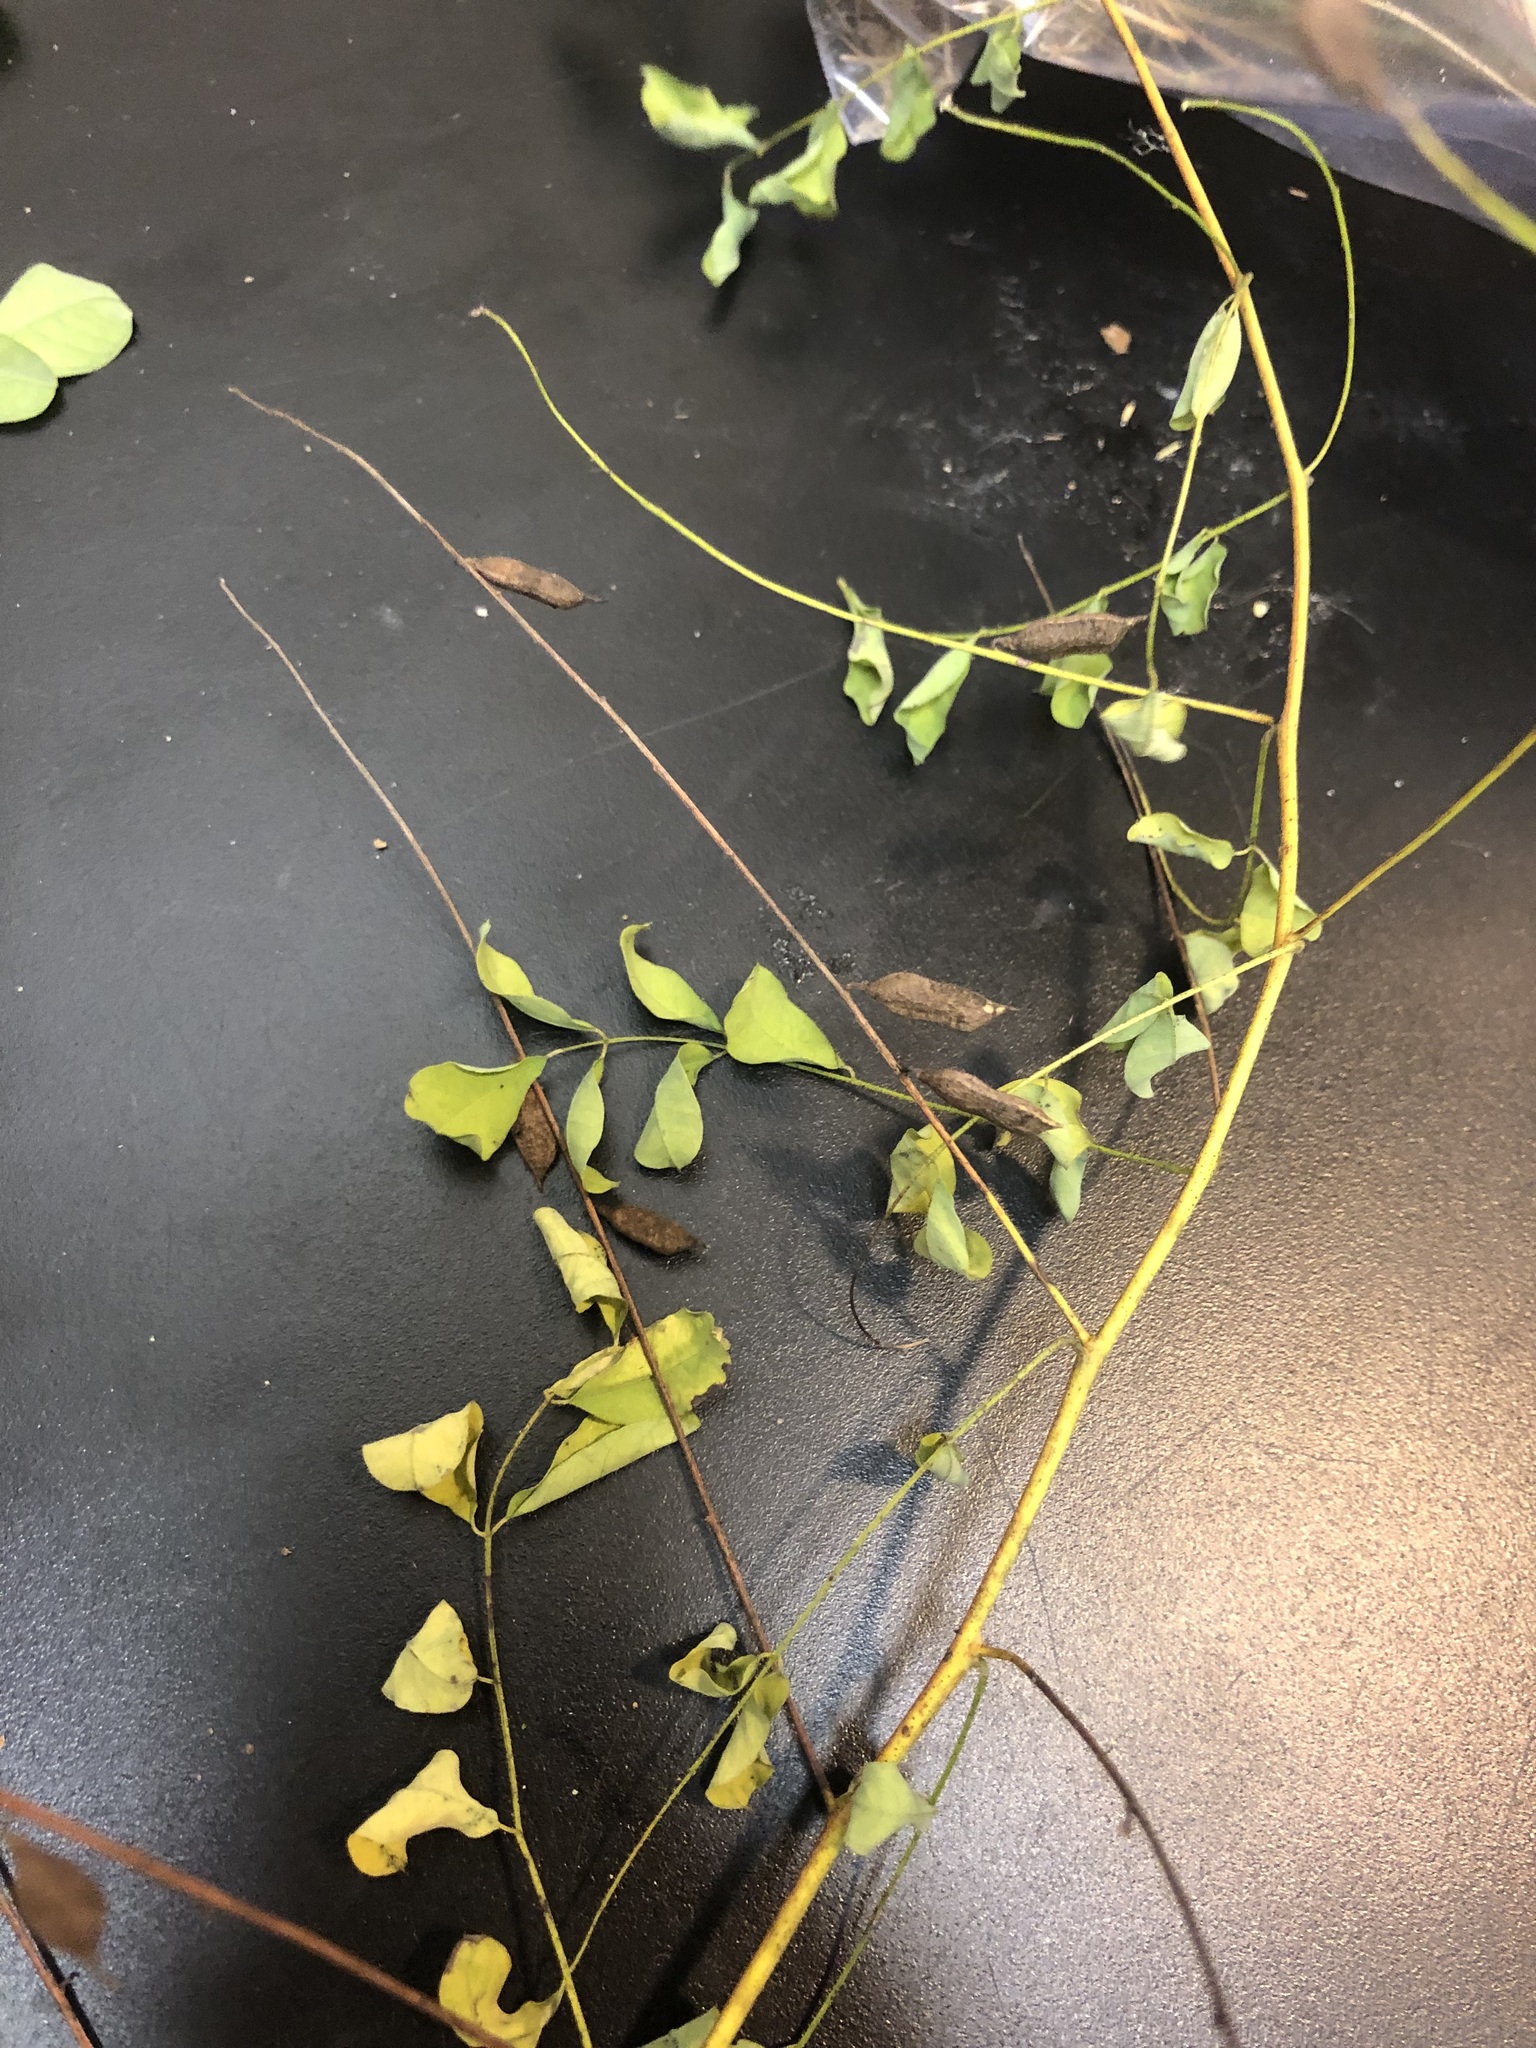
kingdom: Plantae
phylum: Tracheophyta
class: Magnoliopsida
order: Fabales
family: Fabaceae
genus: Indigofera
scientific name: Indigofera caroliniana
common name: Wild indigo
